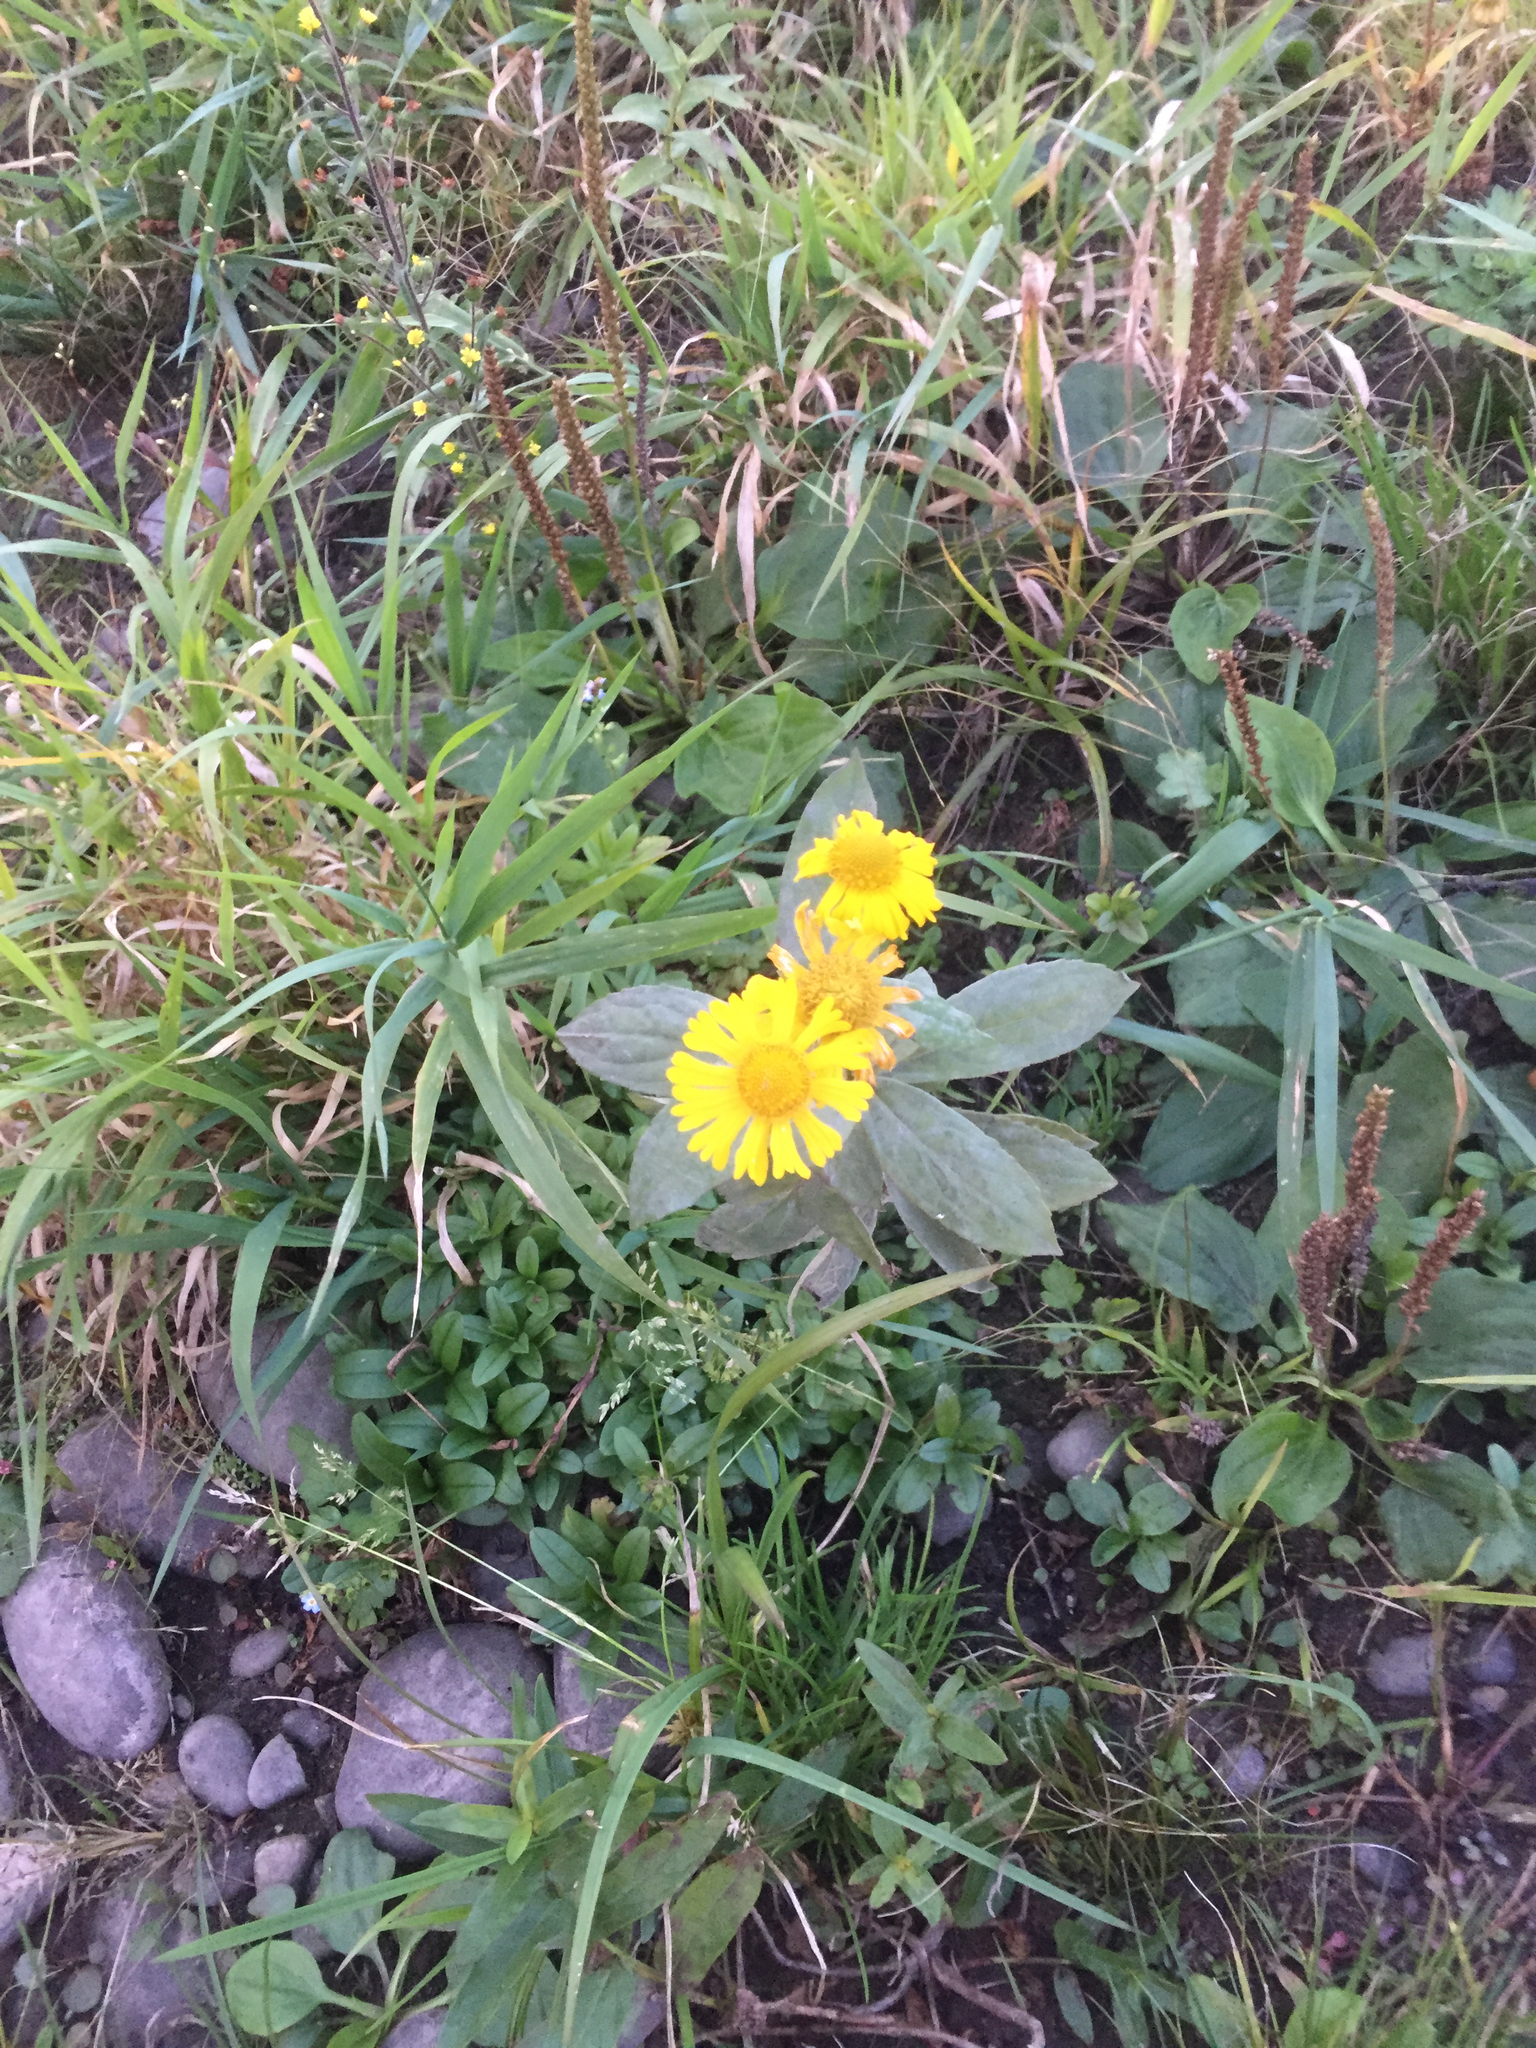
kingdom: Plantae
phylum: Tracheophyta
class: Magnoliopsida
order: Asterales
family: Asteraceae
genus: Helenium
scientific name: Helenium autumnale
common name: Sneezeweed
